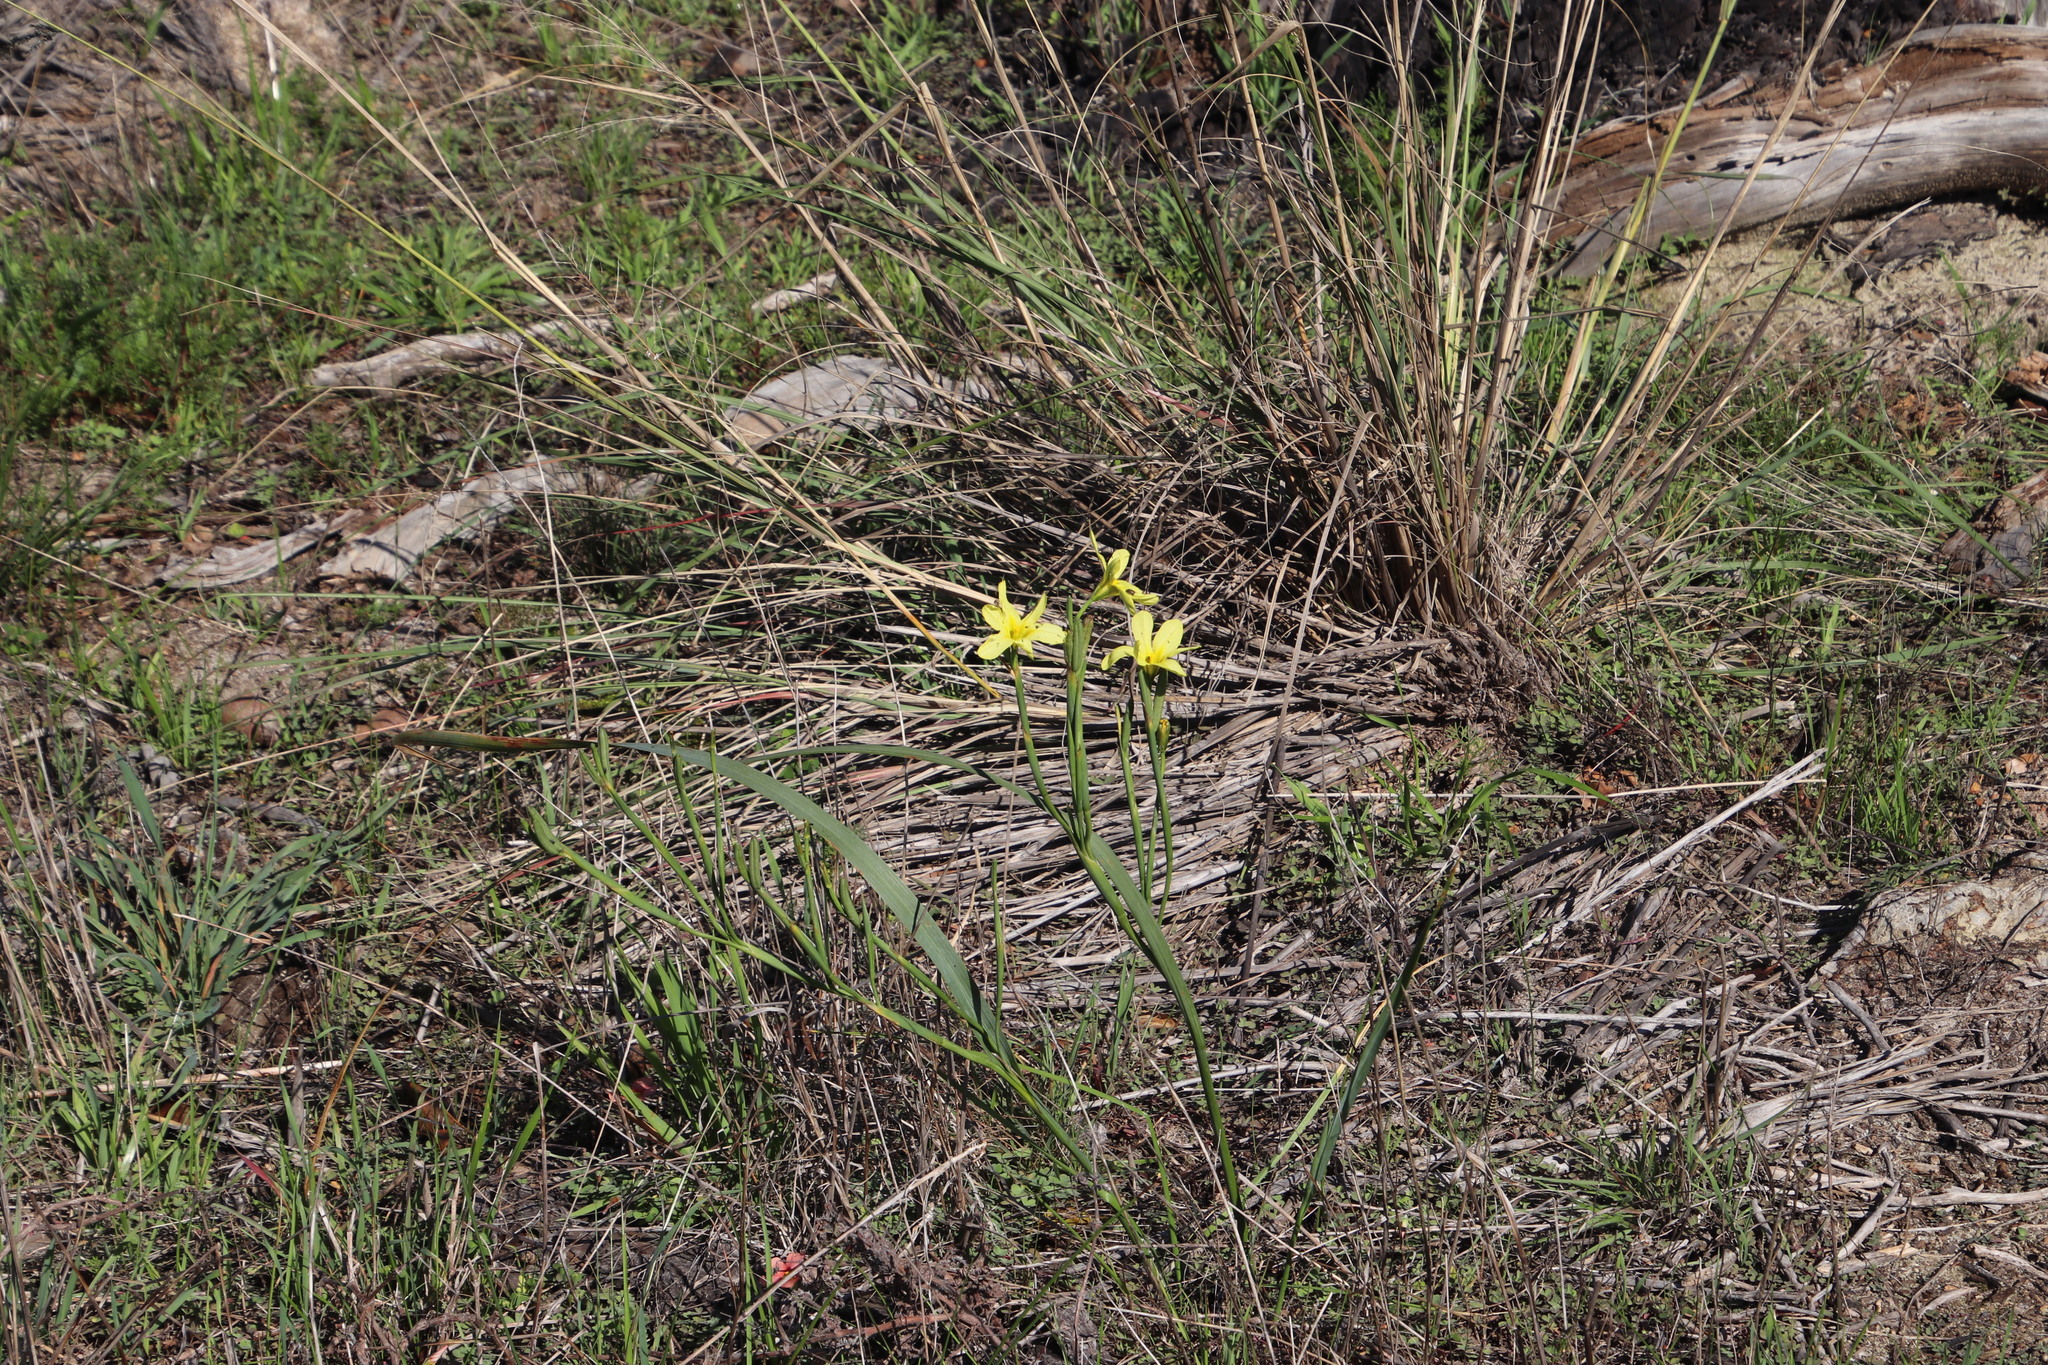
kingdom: Plantae
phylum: Tracheophyta
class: Liliopsida
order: Asparagales
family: Iridaceae
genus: Moraea
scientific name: Moraea collina
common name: Cape-tulip
